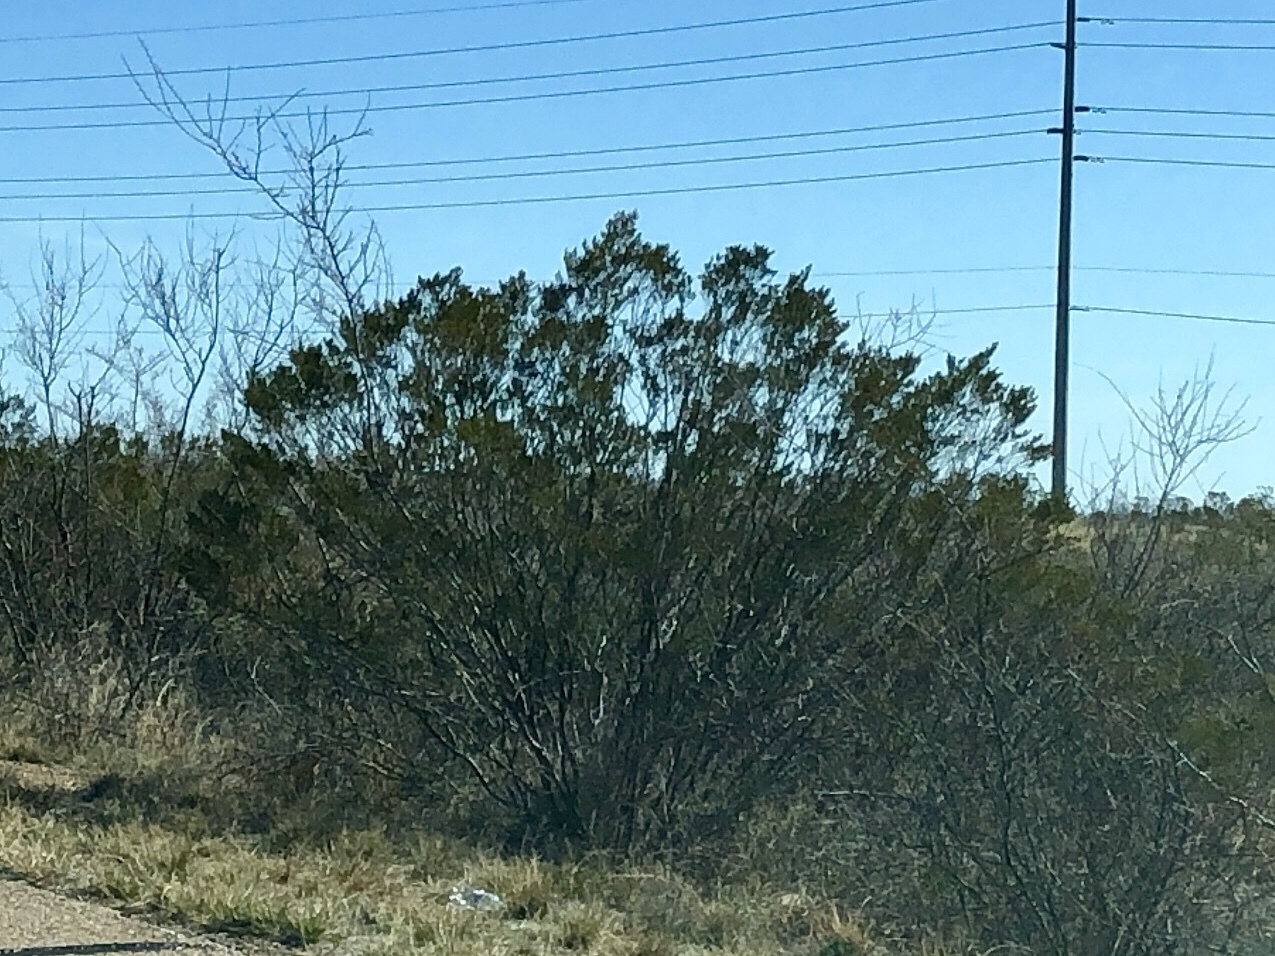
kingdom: Plantae
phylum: Tracheophyta
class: Magnoliopsida
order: Zygophyllales
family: Zygophyllaceae
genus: Larrea
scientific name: Larrea tridentata
